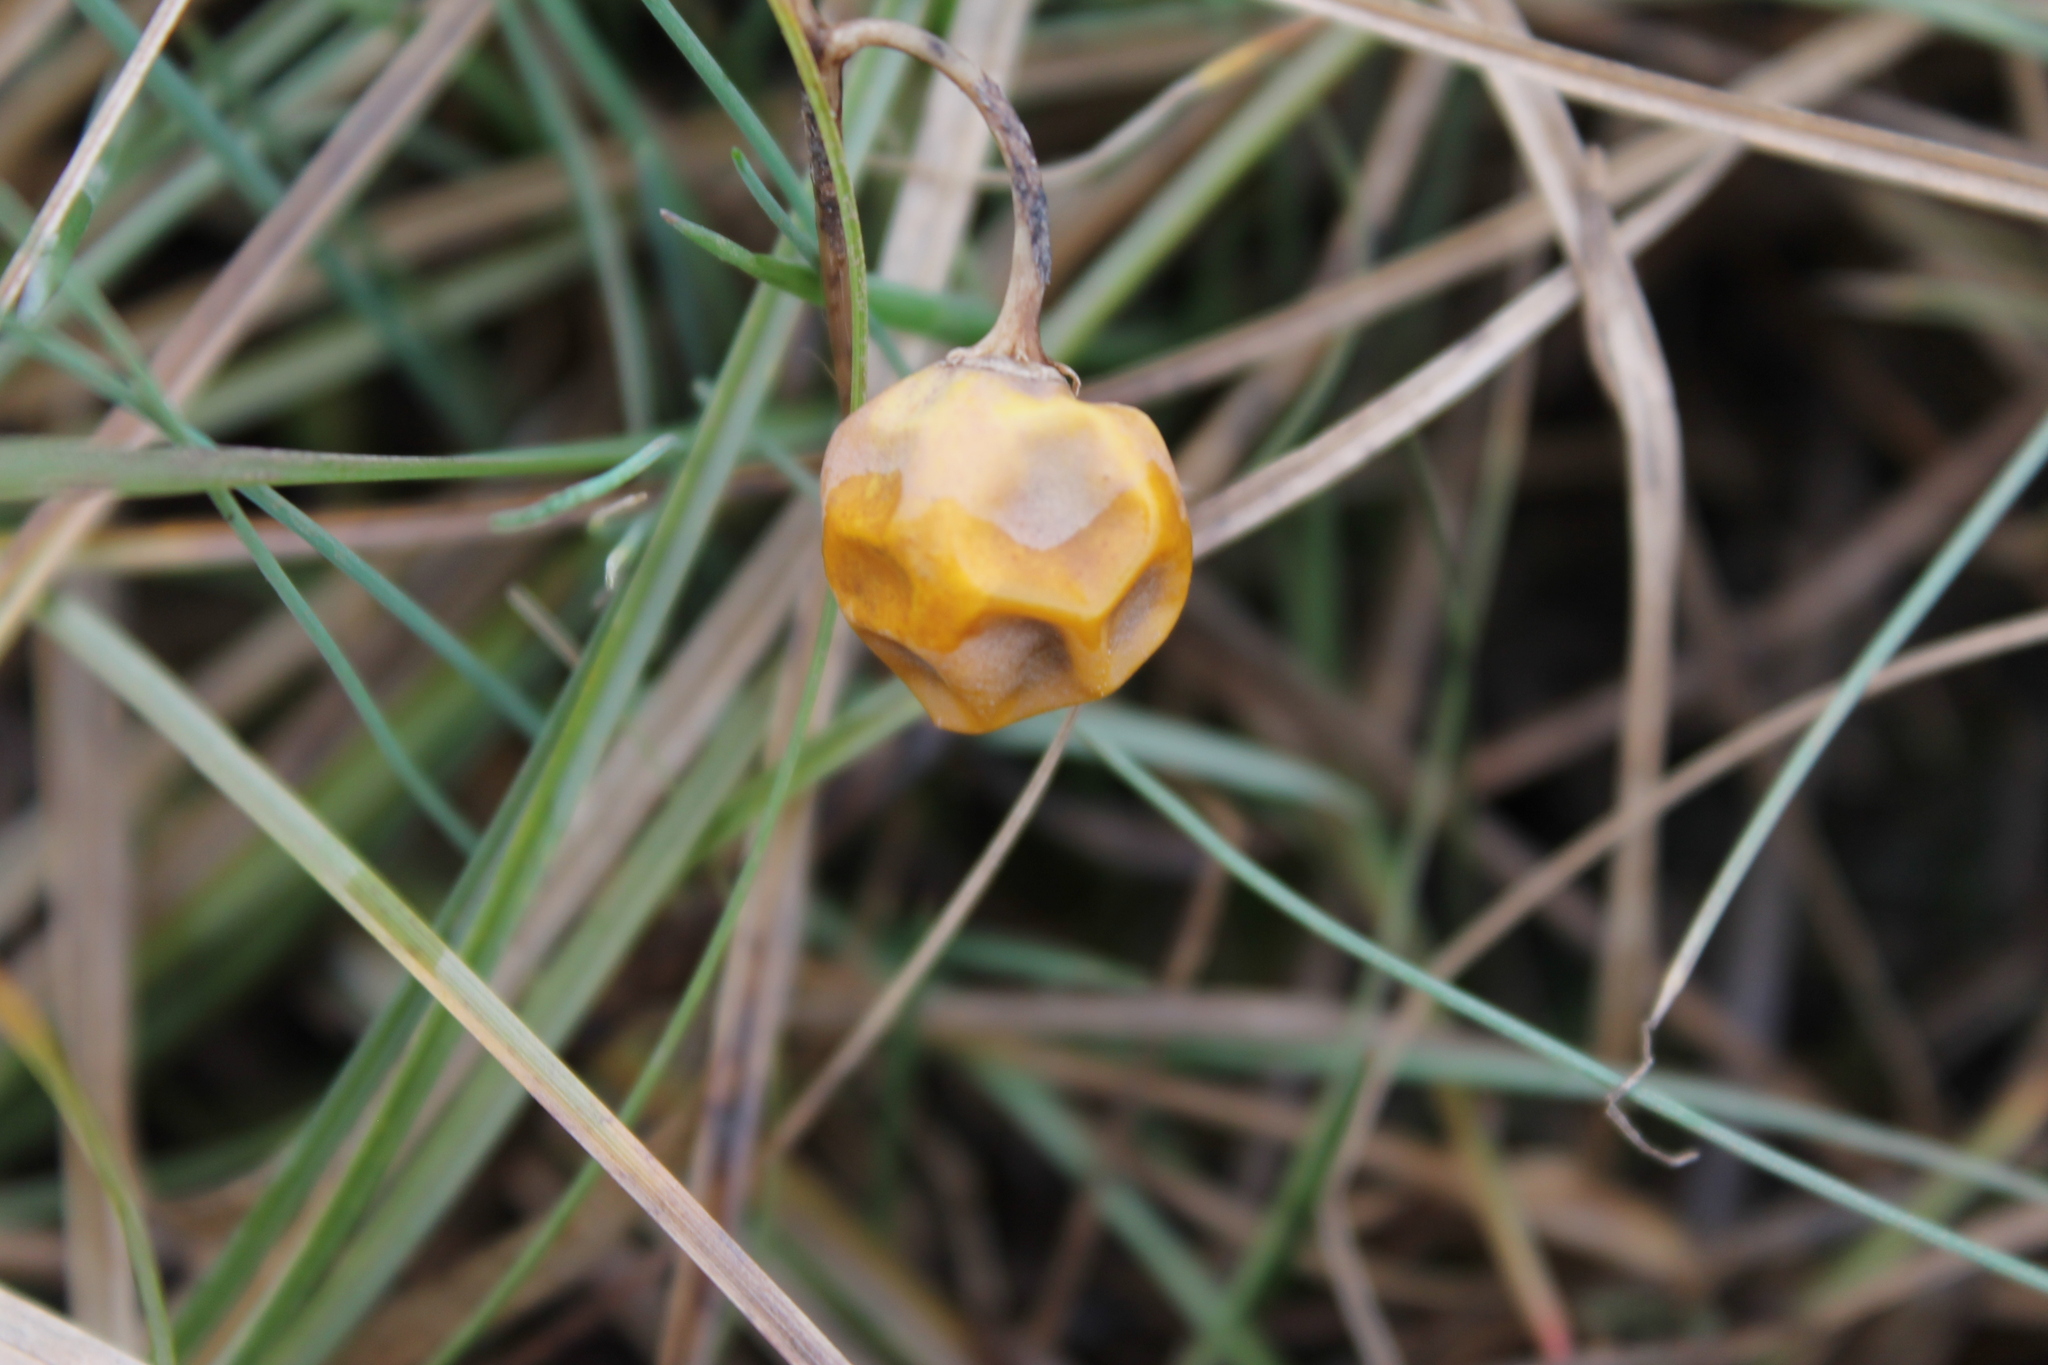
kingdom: Plantae
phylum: Tracheophyta
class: Magnoliopsida
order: Solanales
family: Solanaceae
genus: Solanum
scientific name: Solanum carolinense
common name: Horse-nettle
